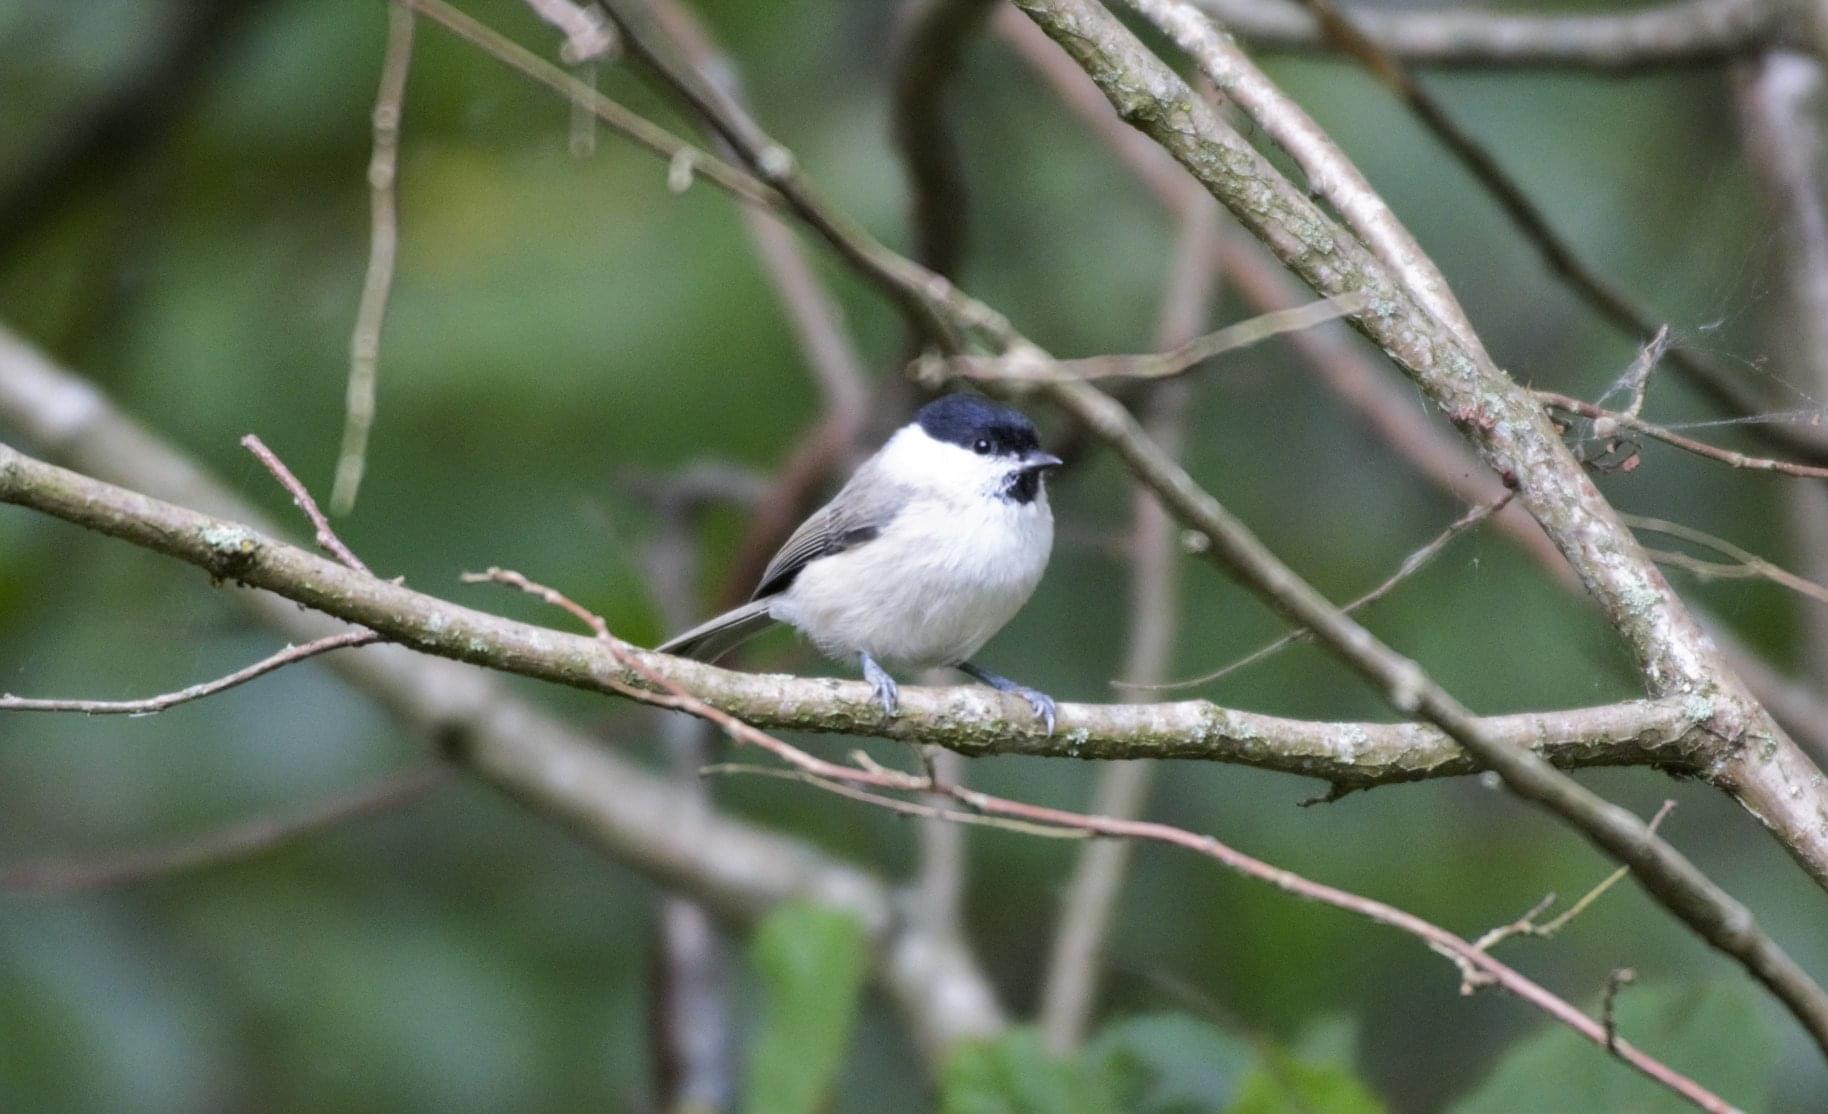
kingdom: Animalia
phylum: Chordata
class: Aves
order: Passeriformes
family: Paridae
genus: Poecile
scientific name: Poecile palustris
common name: Marsh tit
